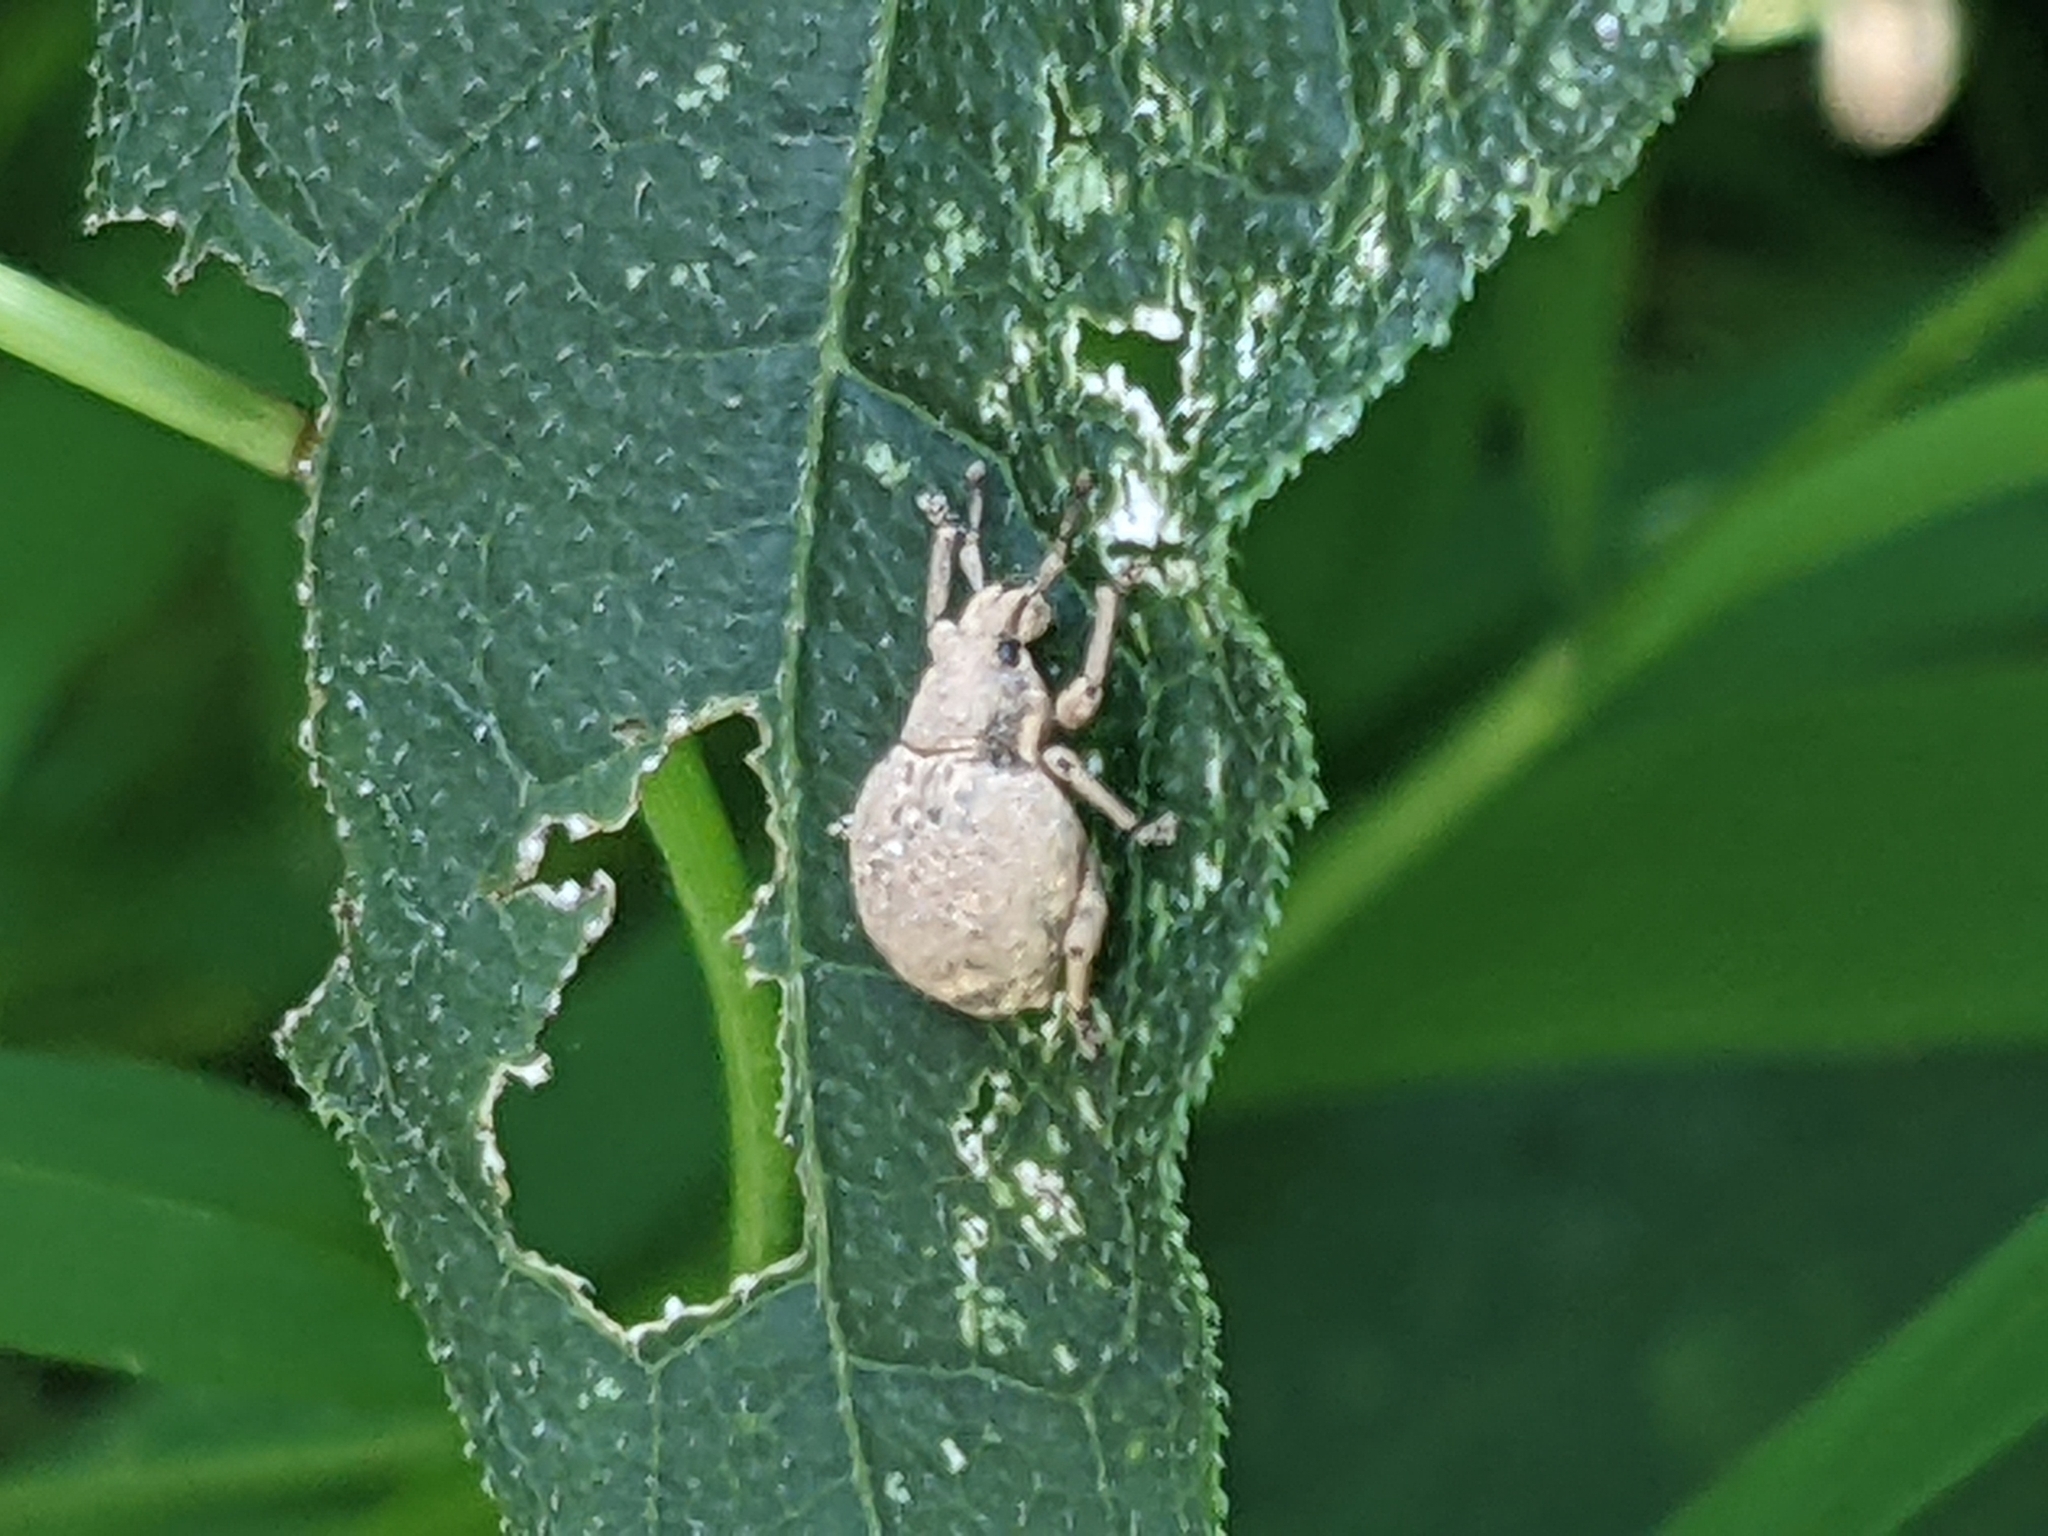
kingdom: Animalia
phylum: Arthropoda
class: Insecta
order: Coleoptera
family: Curculionidae
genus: Pseudocneorhinus
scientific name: Pseudocneorhinus bifasciatus
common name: Two-banded japanese weevil
